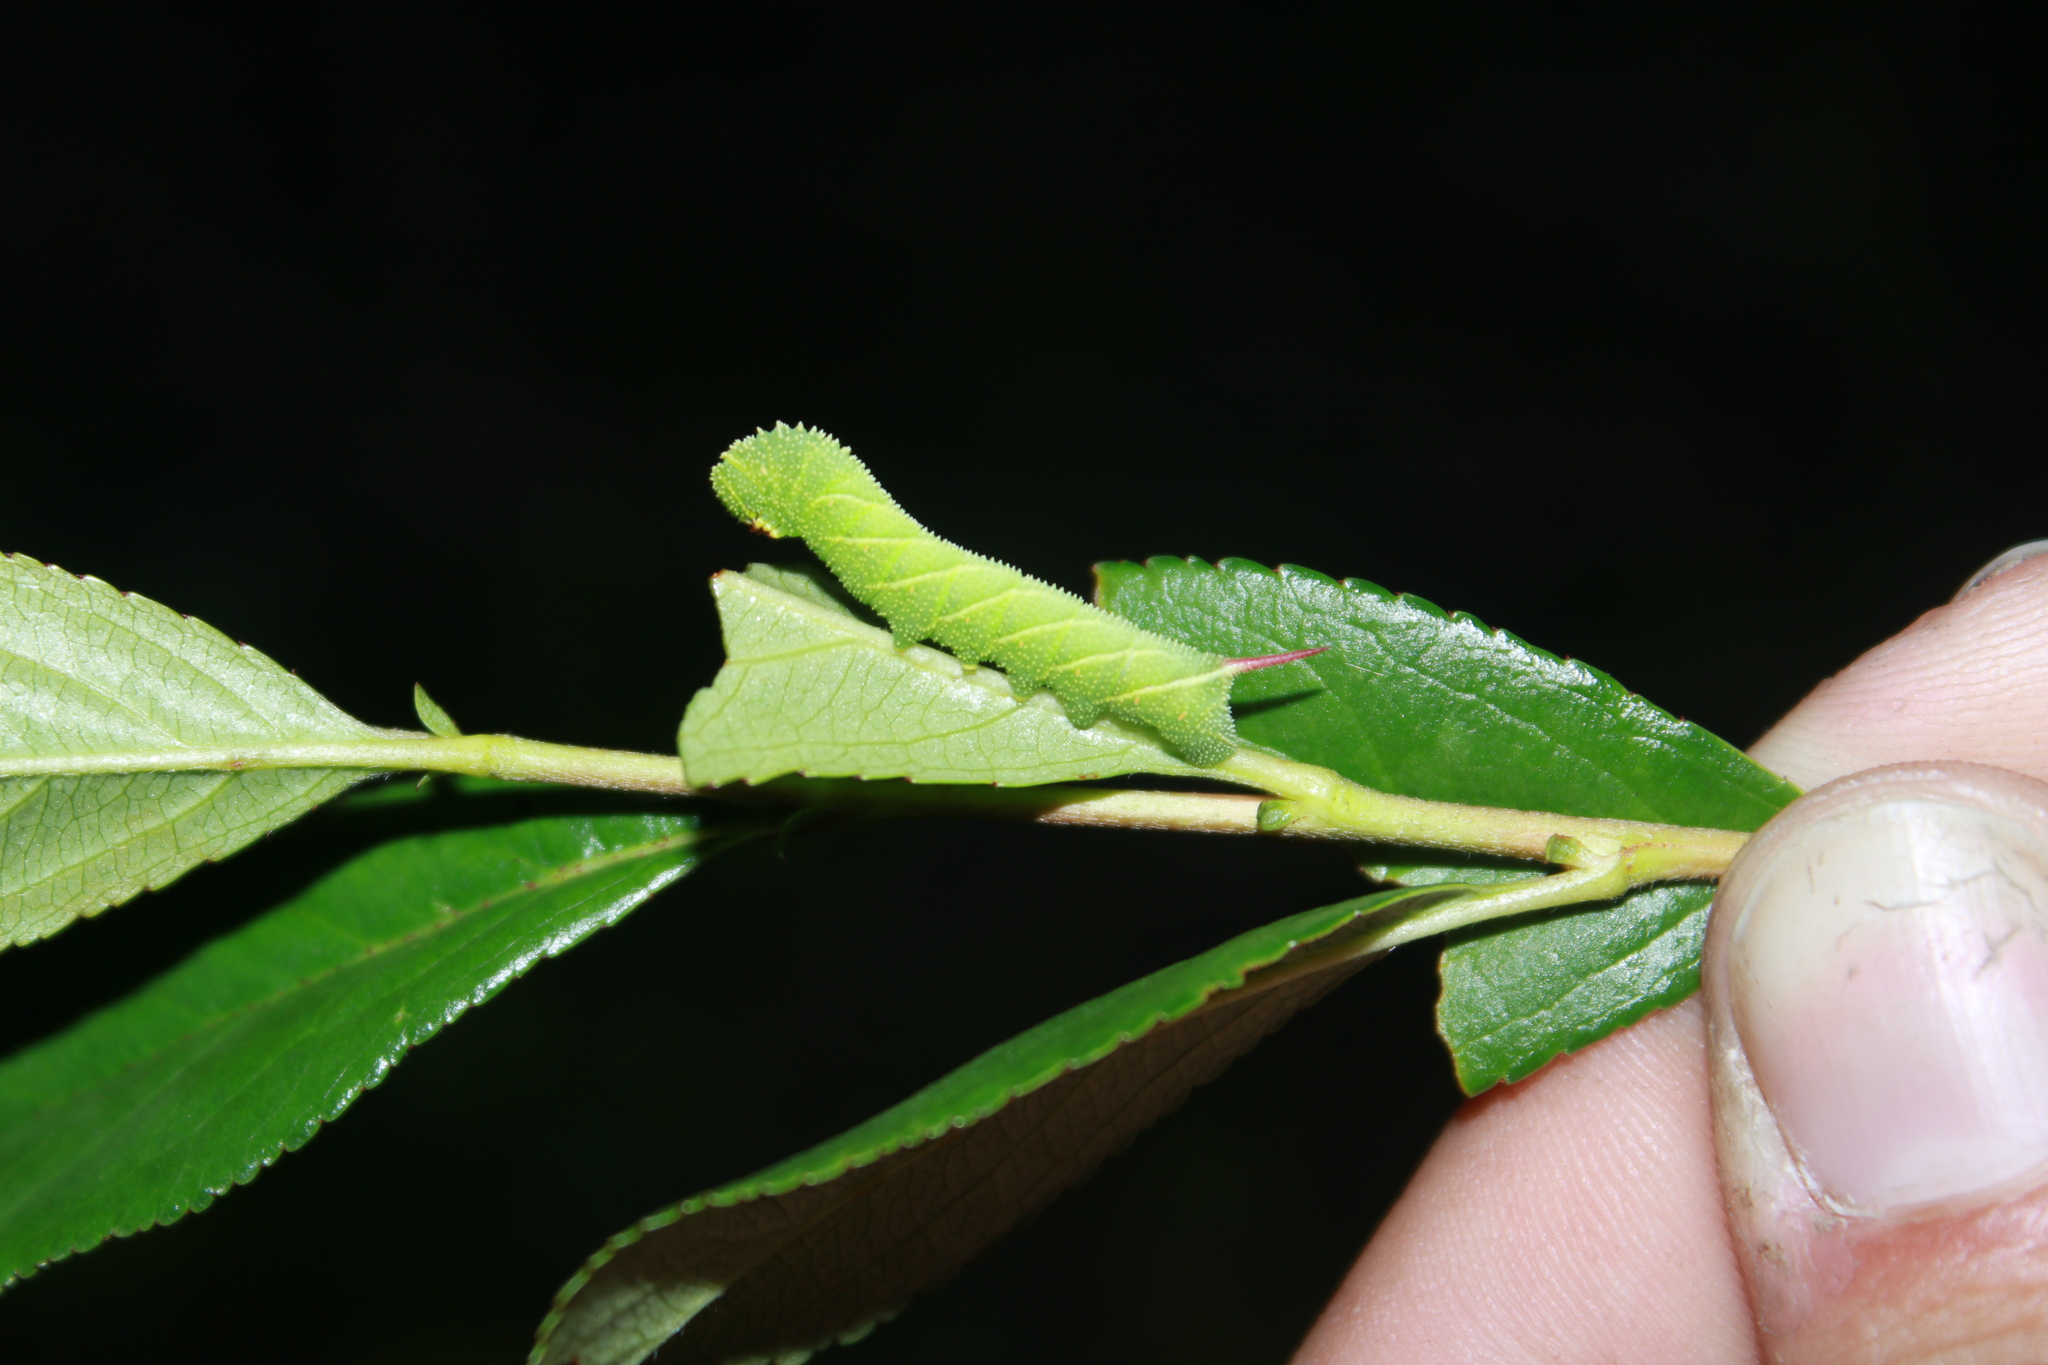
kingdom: Animalia
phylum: Arthropoda
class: Insecta
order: Lepidoptera
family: Sphingidae
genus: Sphinx
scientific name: Sphinx drupiferarum
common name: Wild cherry sphinx
